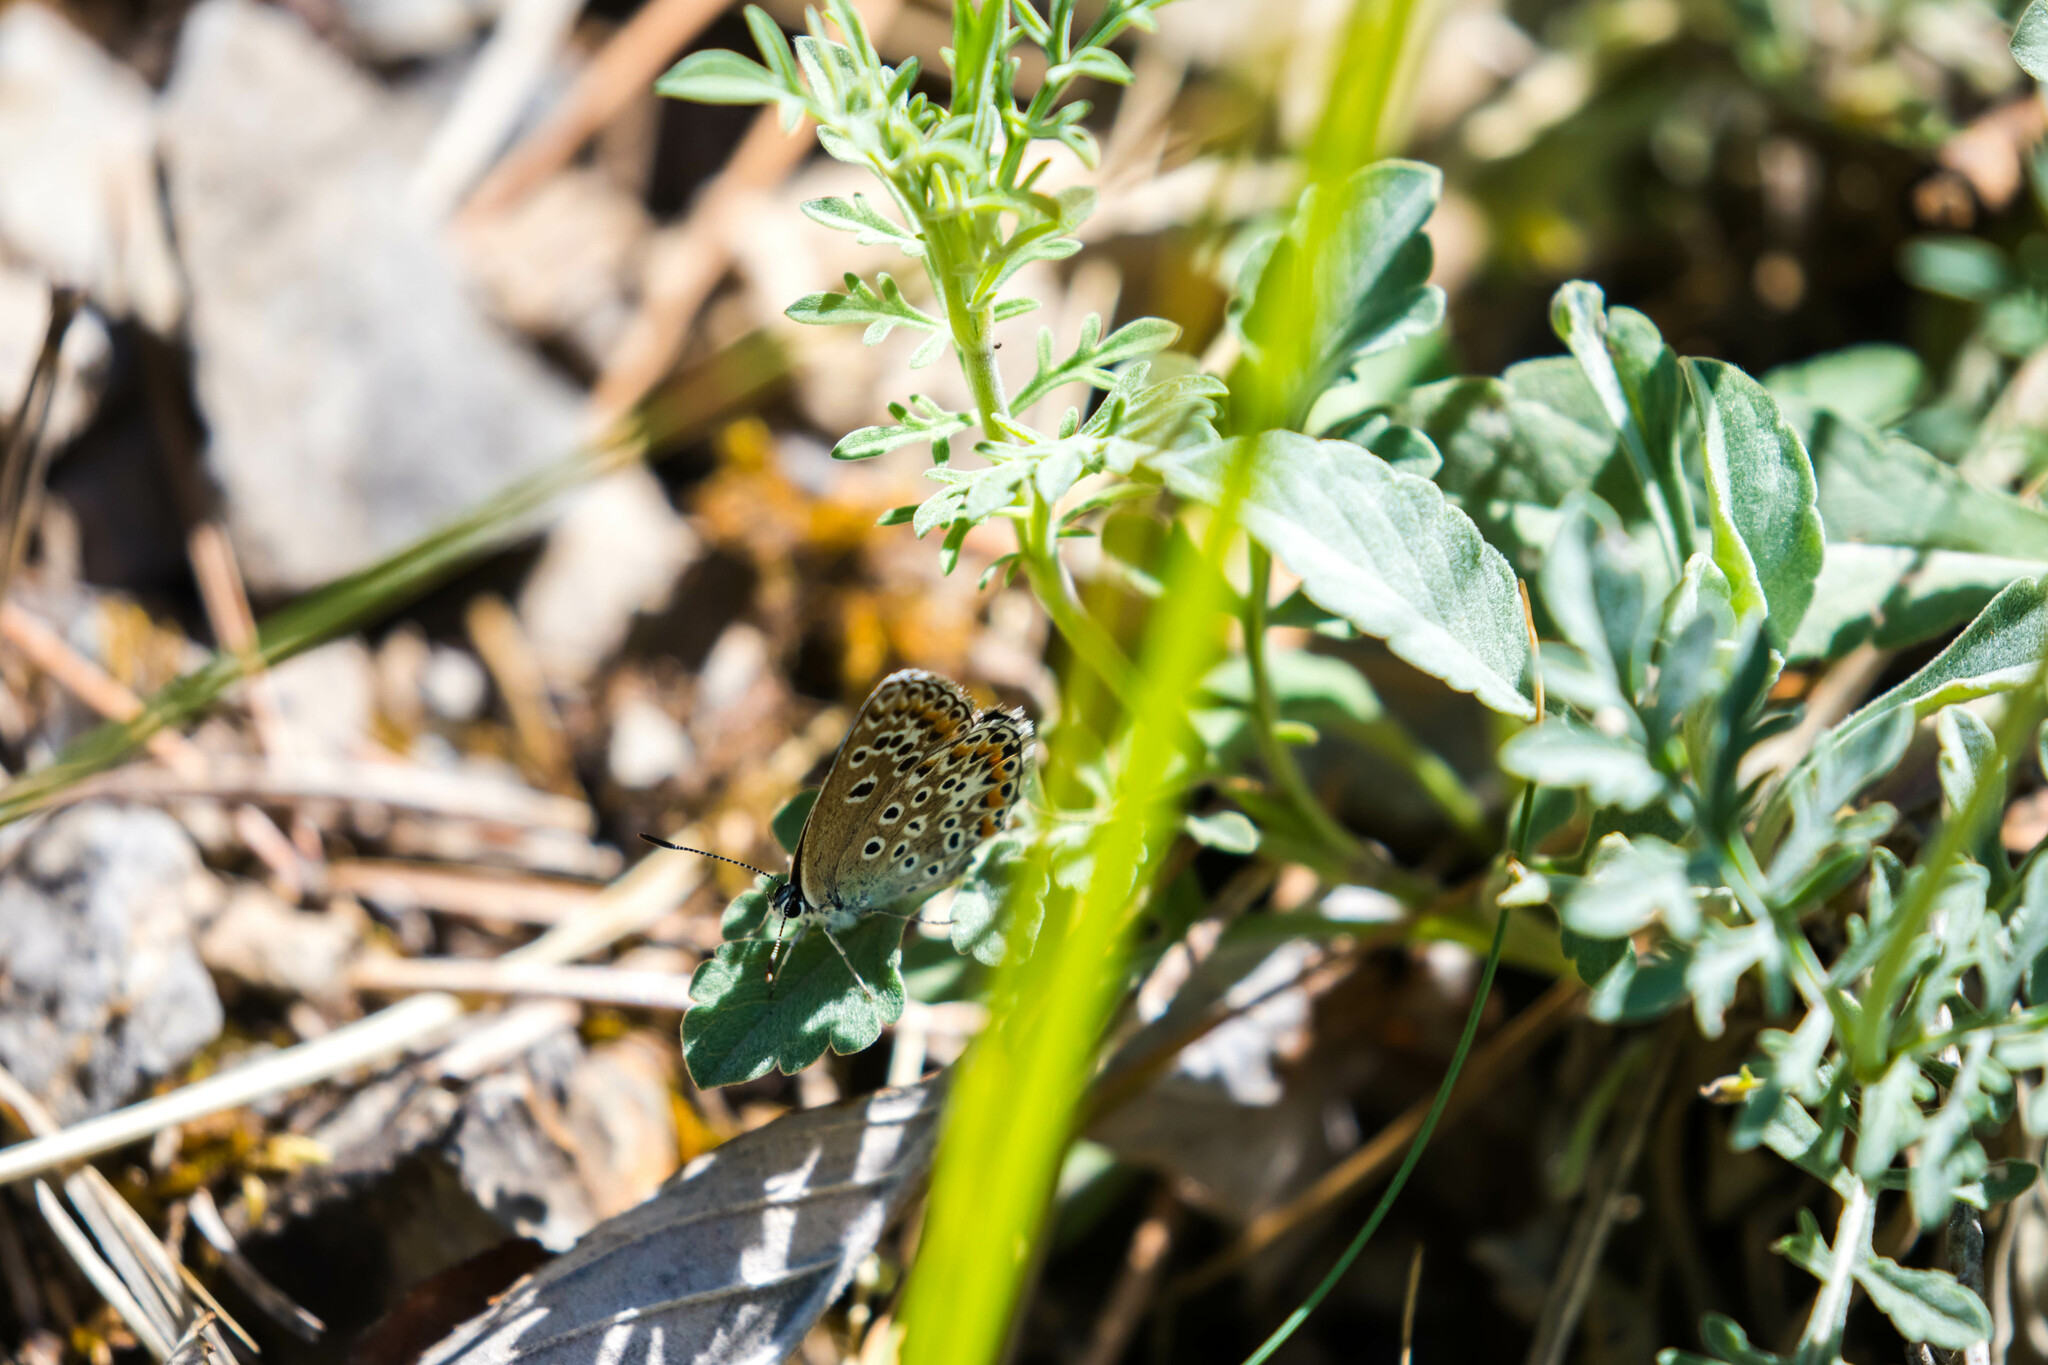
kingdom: Animalia
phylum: Arthropoda
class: Insecta
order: Lepidoptera
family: Lycaenidae
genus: Plebicula
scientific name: Plebicula escheri
